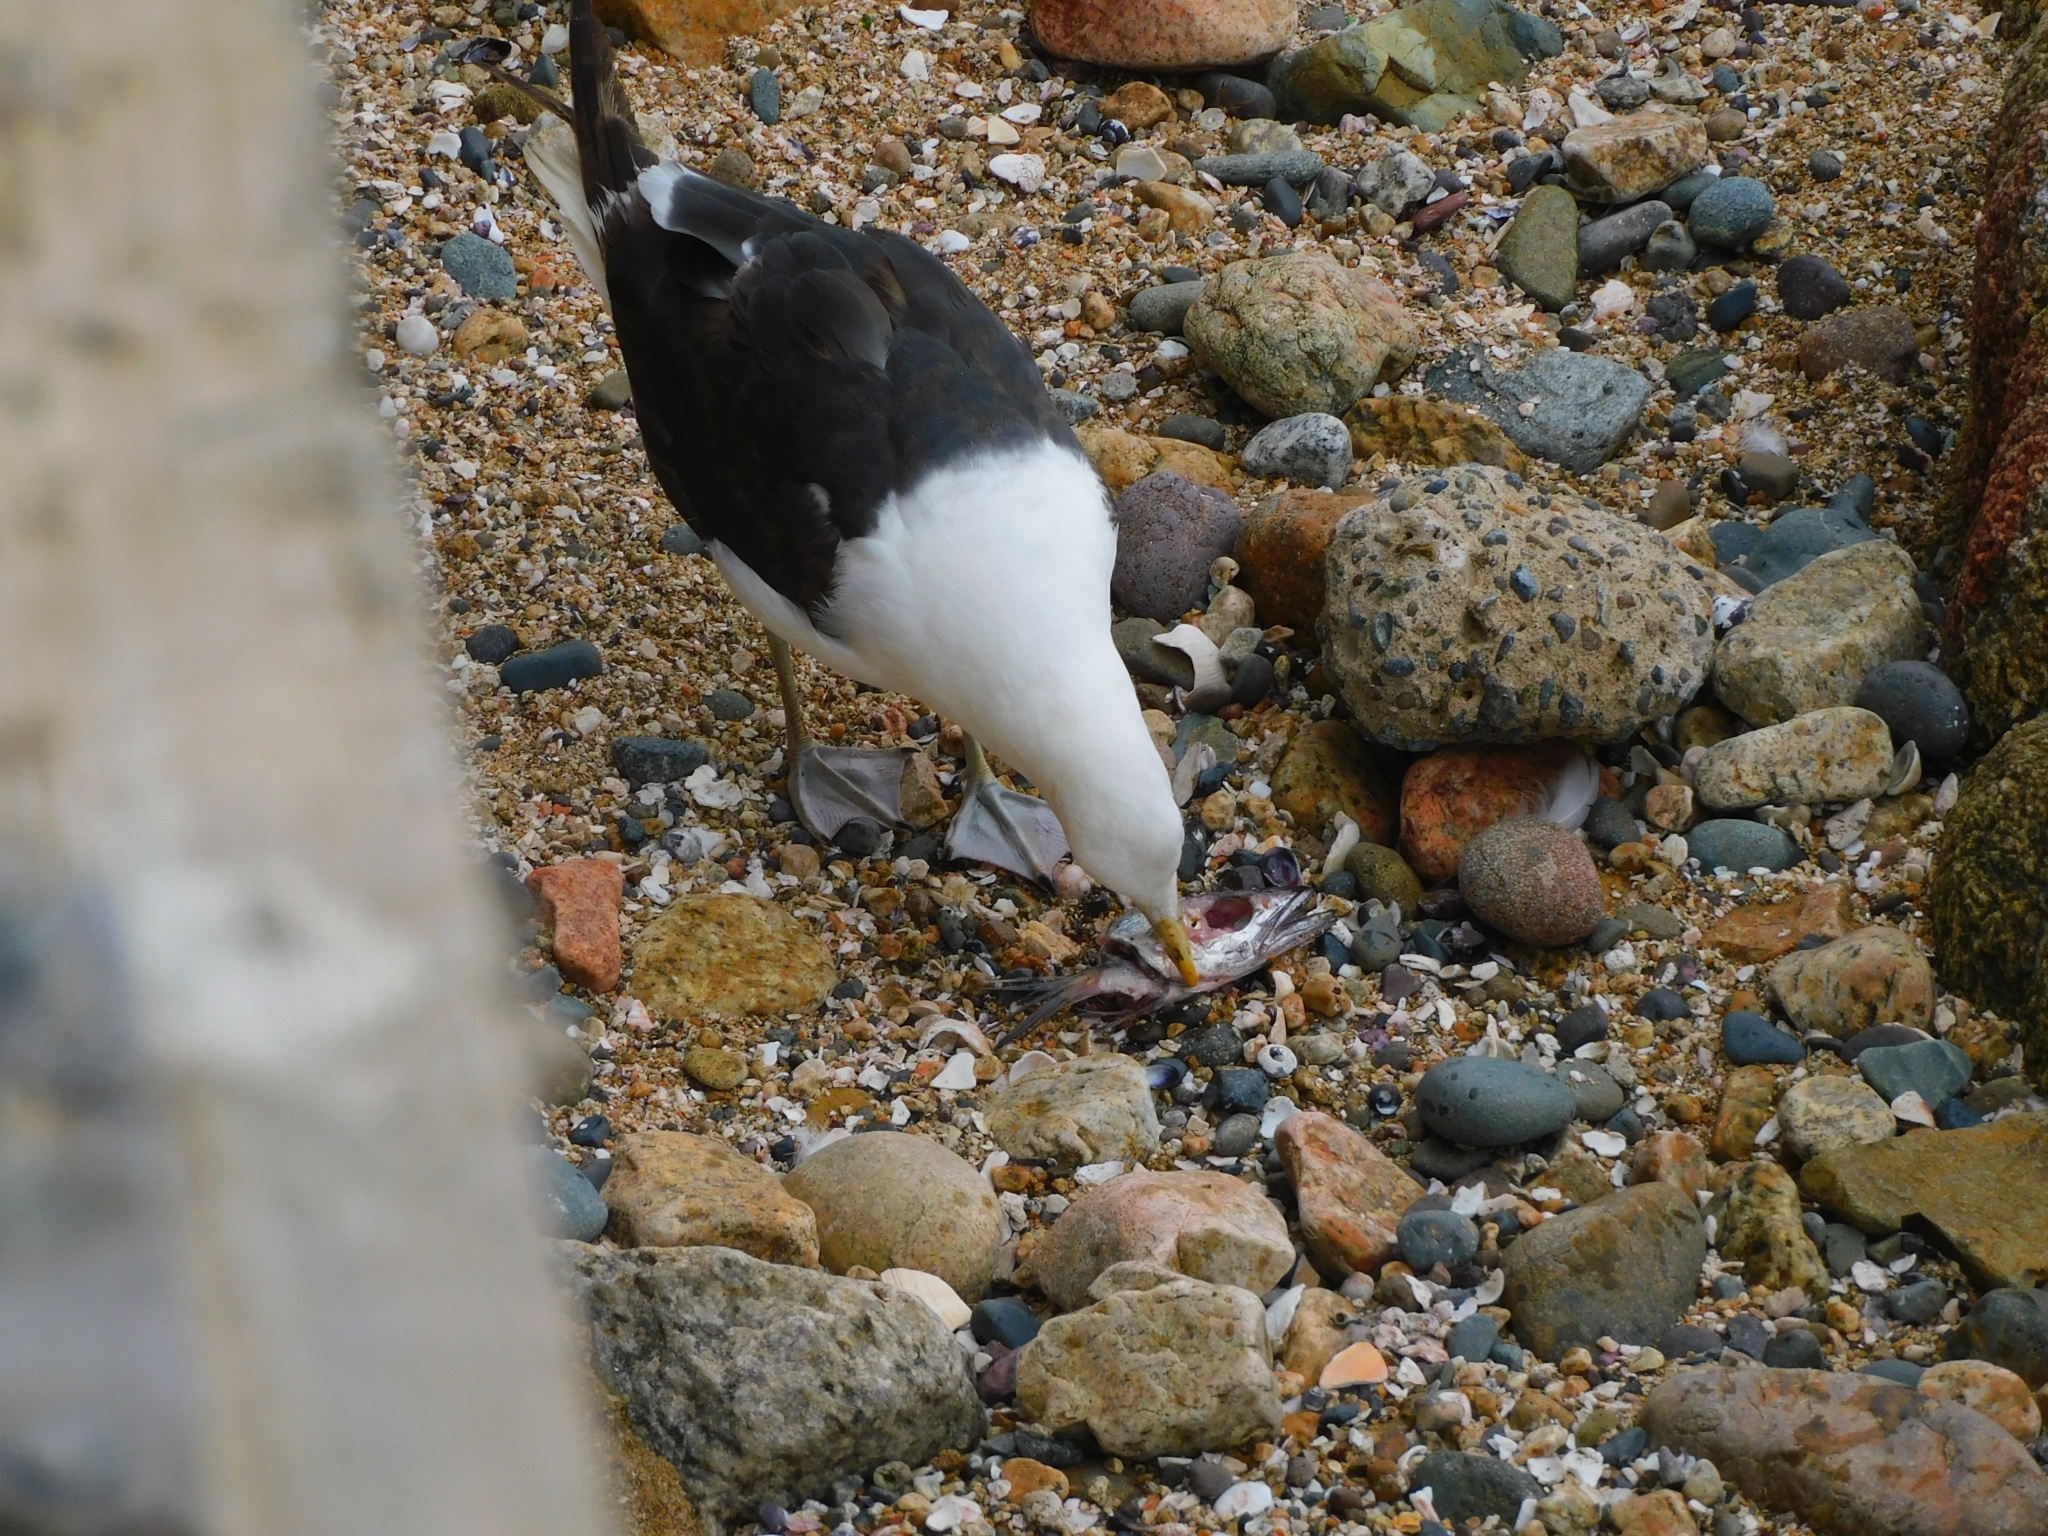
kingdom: Animalia
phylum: Chordata
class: Aves
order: Charadriiformes
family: Laridae
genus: Larus
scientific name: Larus dominicanus
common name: Kelp gull
